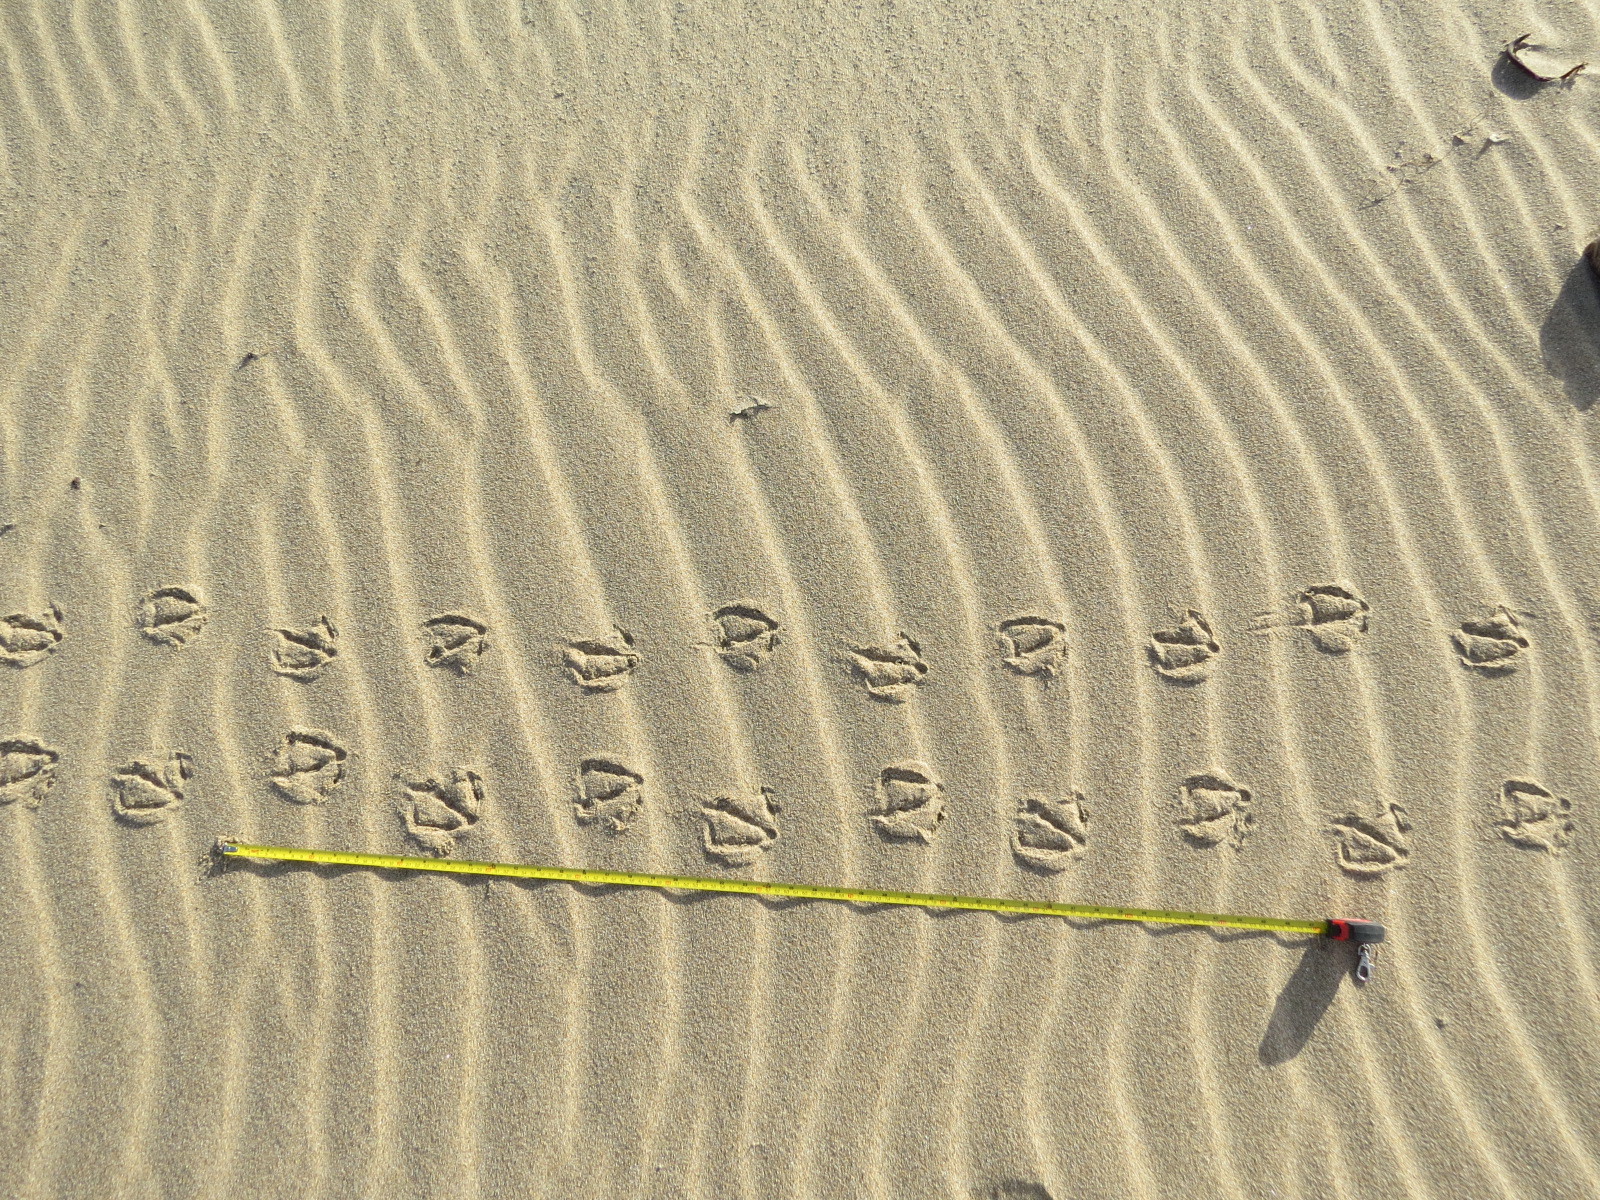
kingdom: Animalia
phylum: Chordata
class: Aves
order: Anseriformes
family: Anatidae
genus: Branta
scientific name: Branta hutchinsii
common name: Cackling goose
